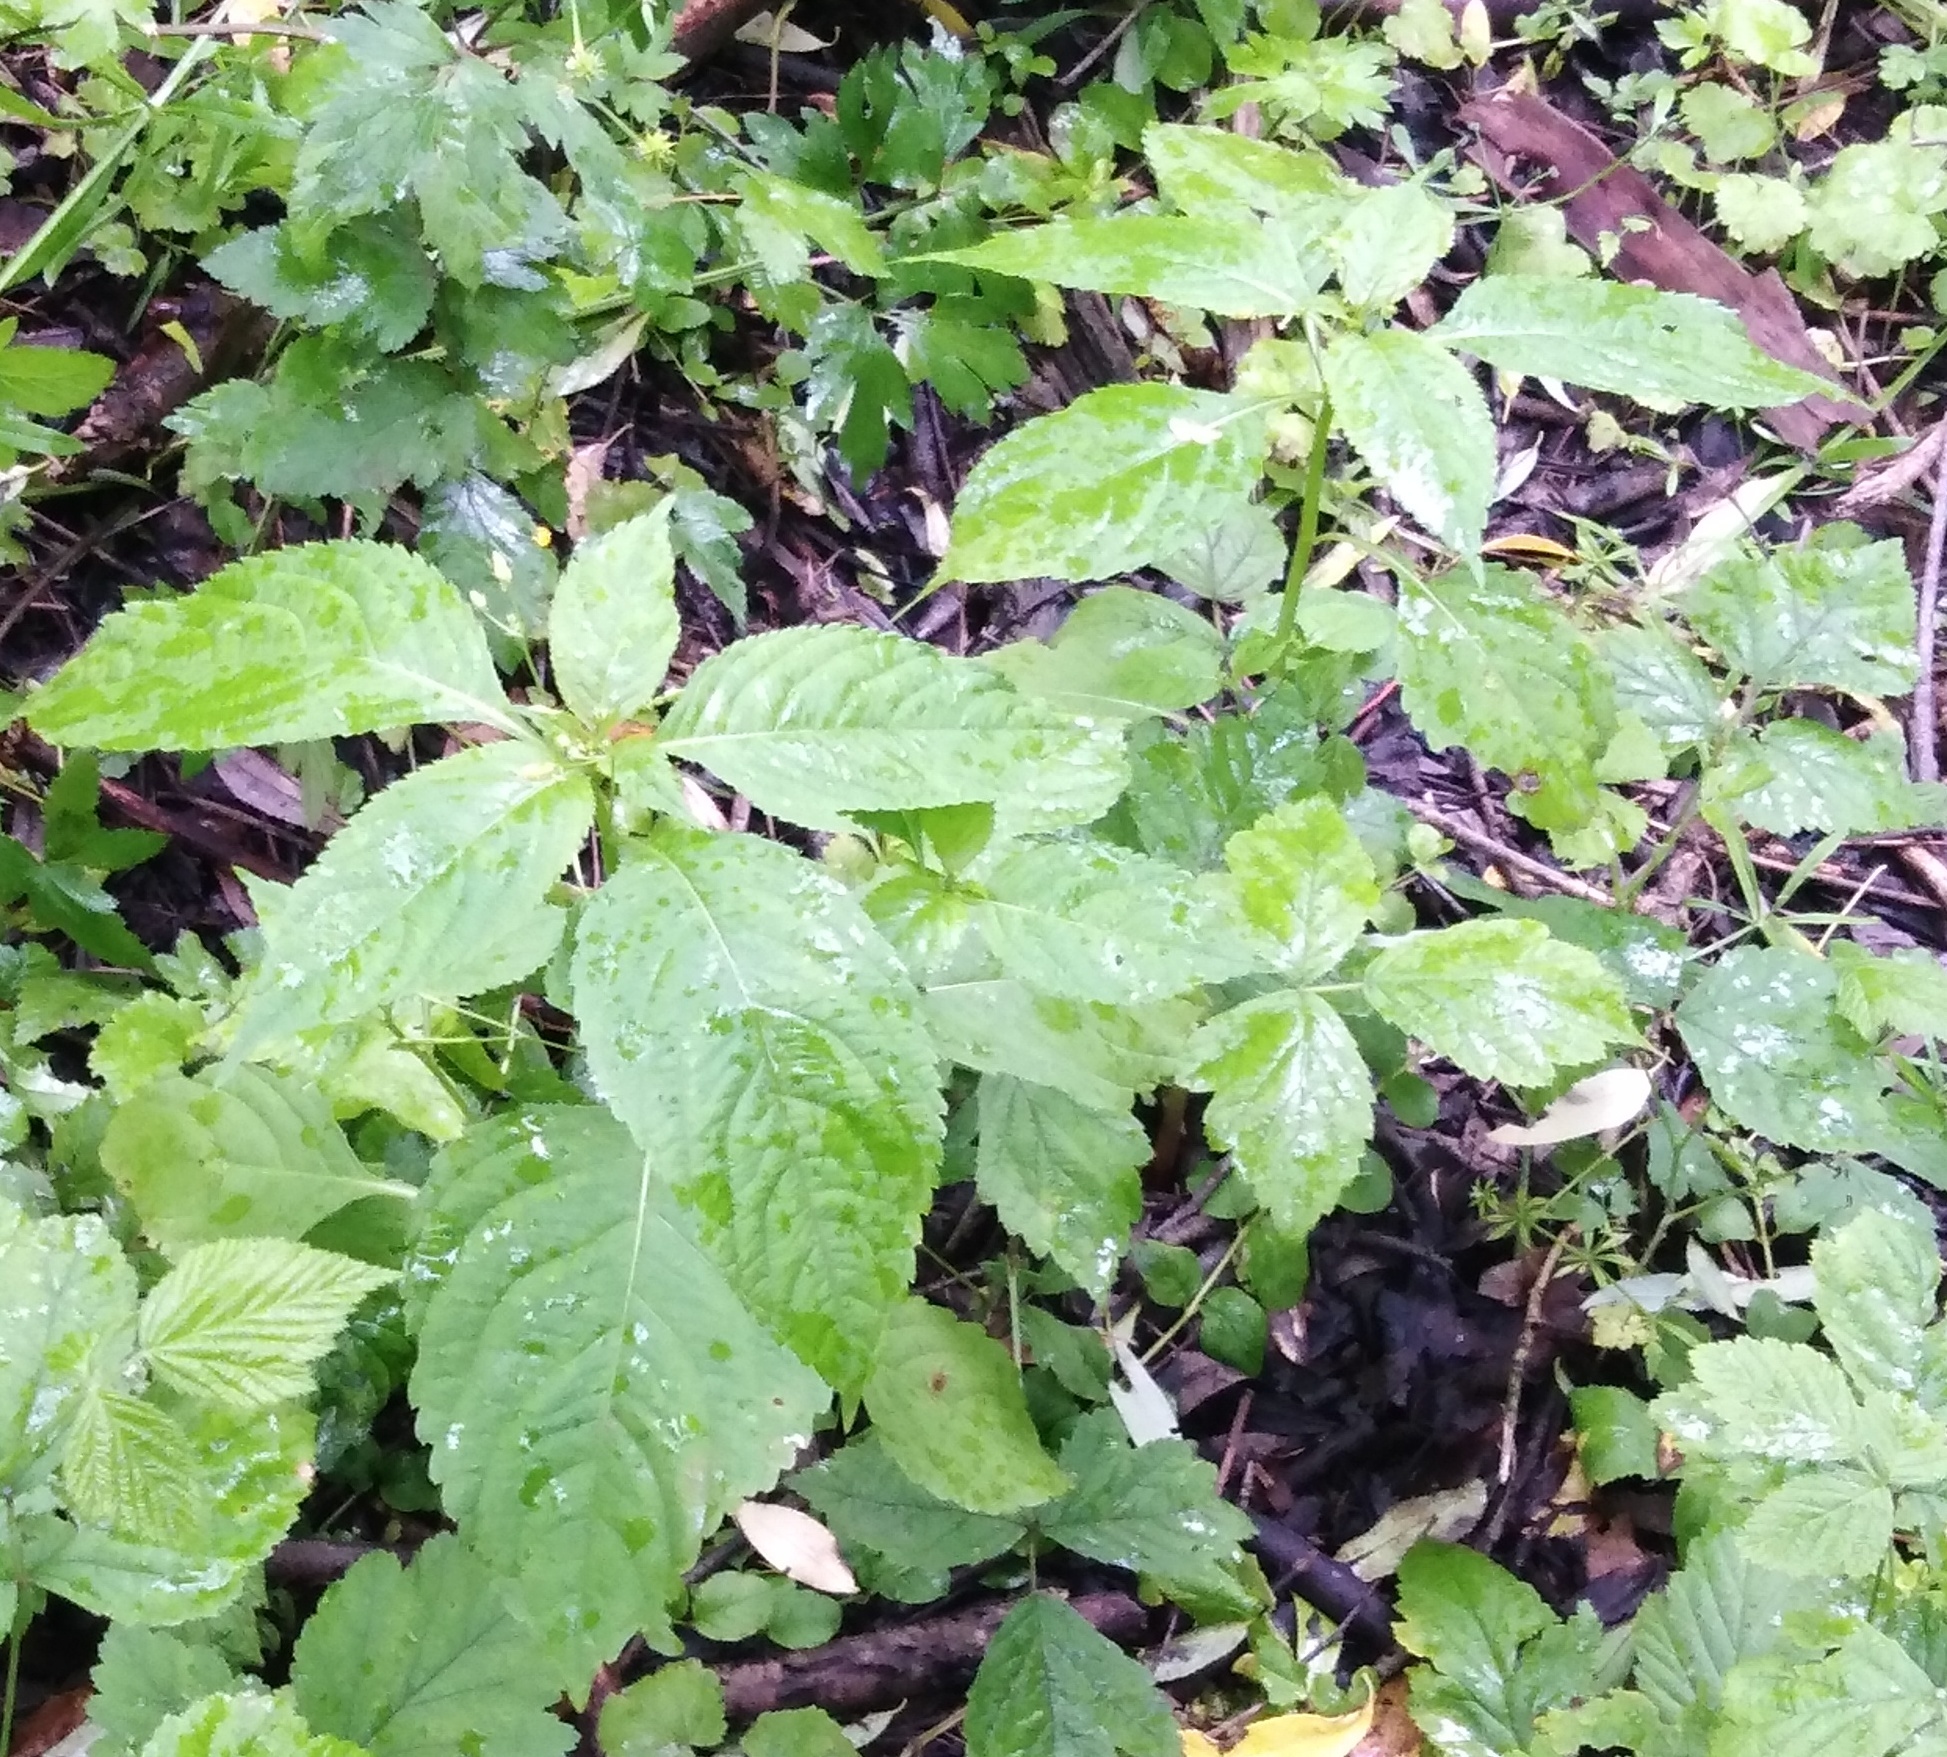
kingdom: Plantae
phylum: Tracheophyta
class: Magnoliopsida
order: Malpighiales
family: Euphorbiaceae
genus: Mercurialis
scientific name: Mercurialis perennis
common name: Dog mercury
